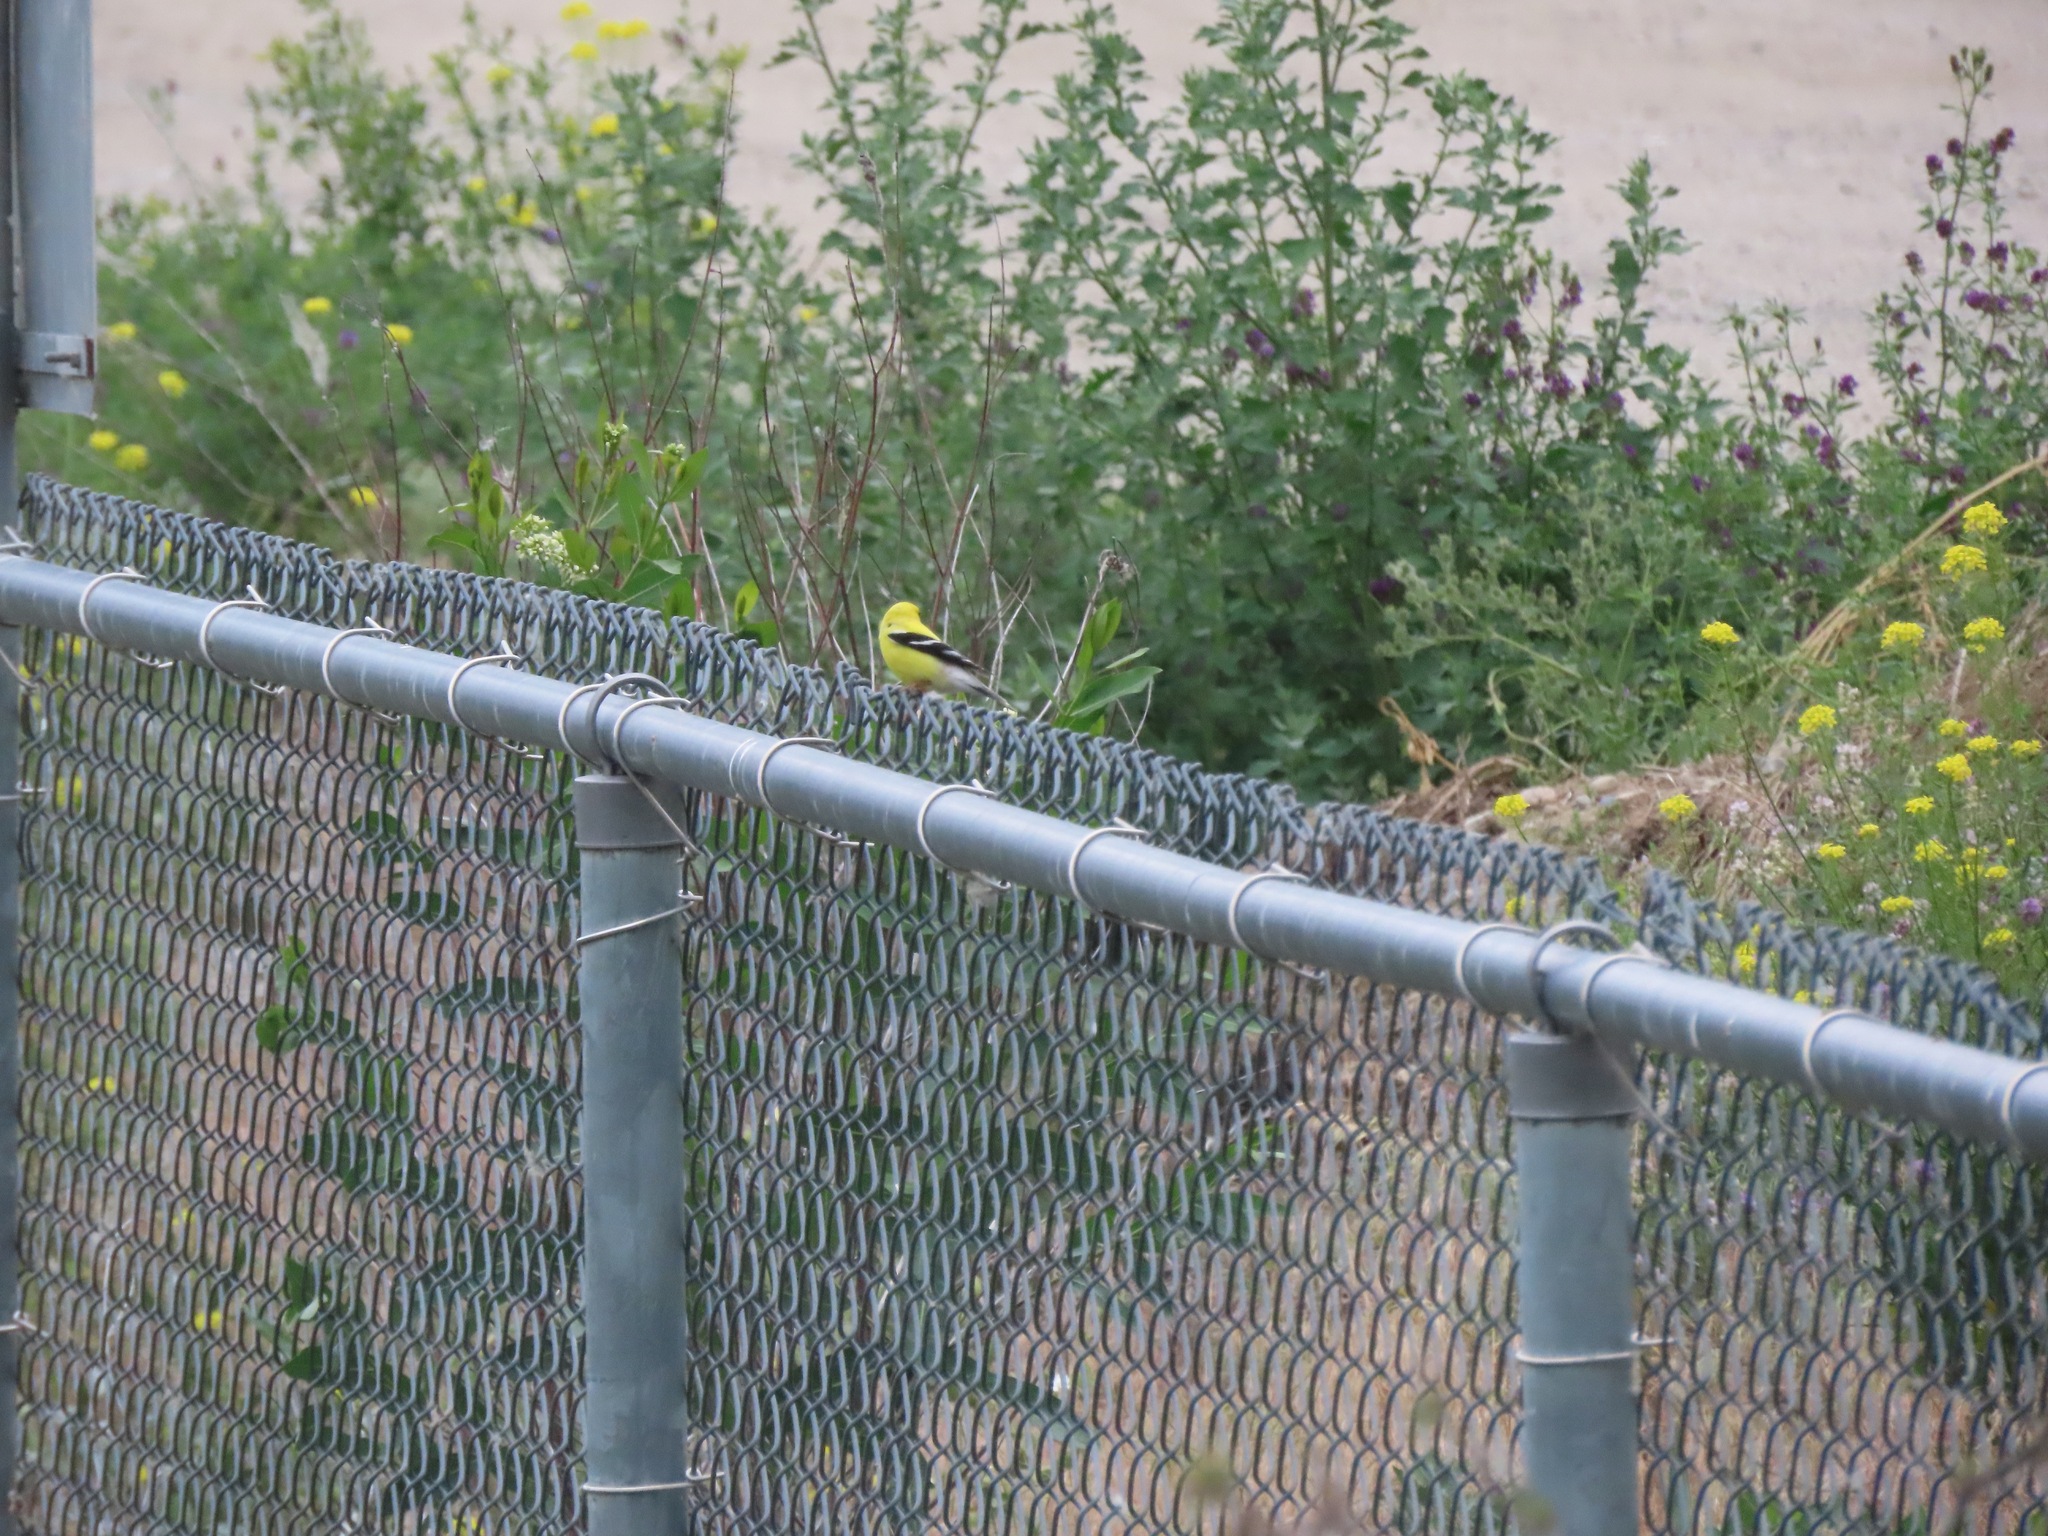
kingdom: Animalia
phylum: Chordata
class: Aves
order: Passeriformes
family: Fringillidae
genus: Spinus
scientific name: Spinus tristis
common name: American goldfinch
